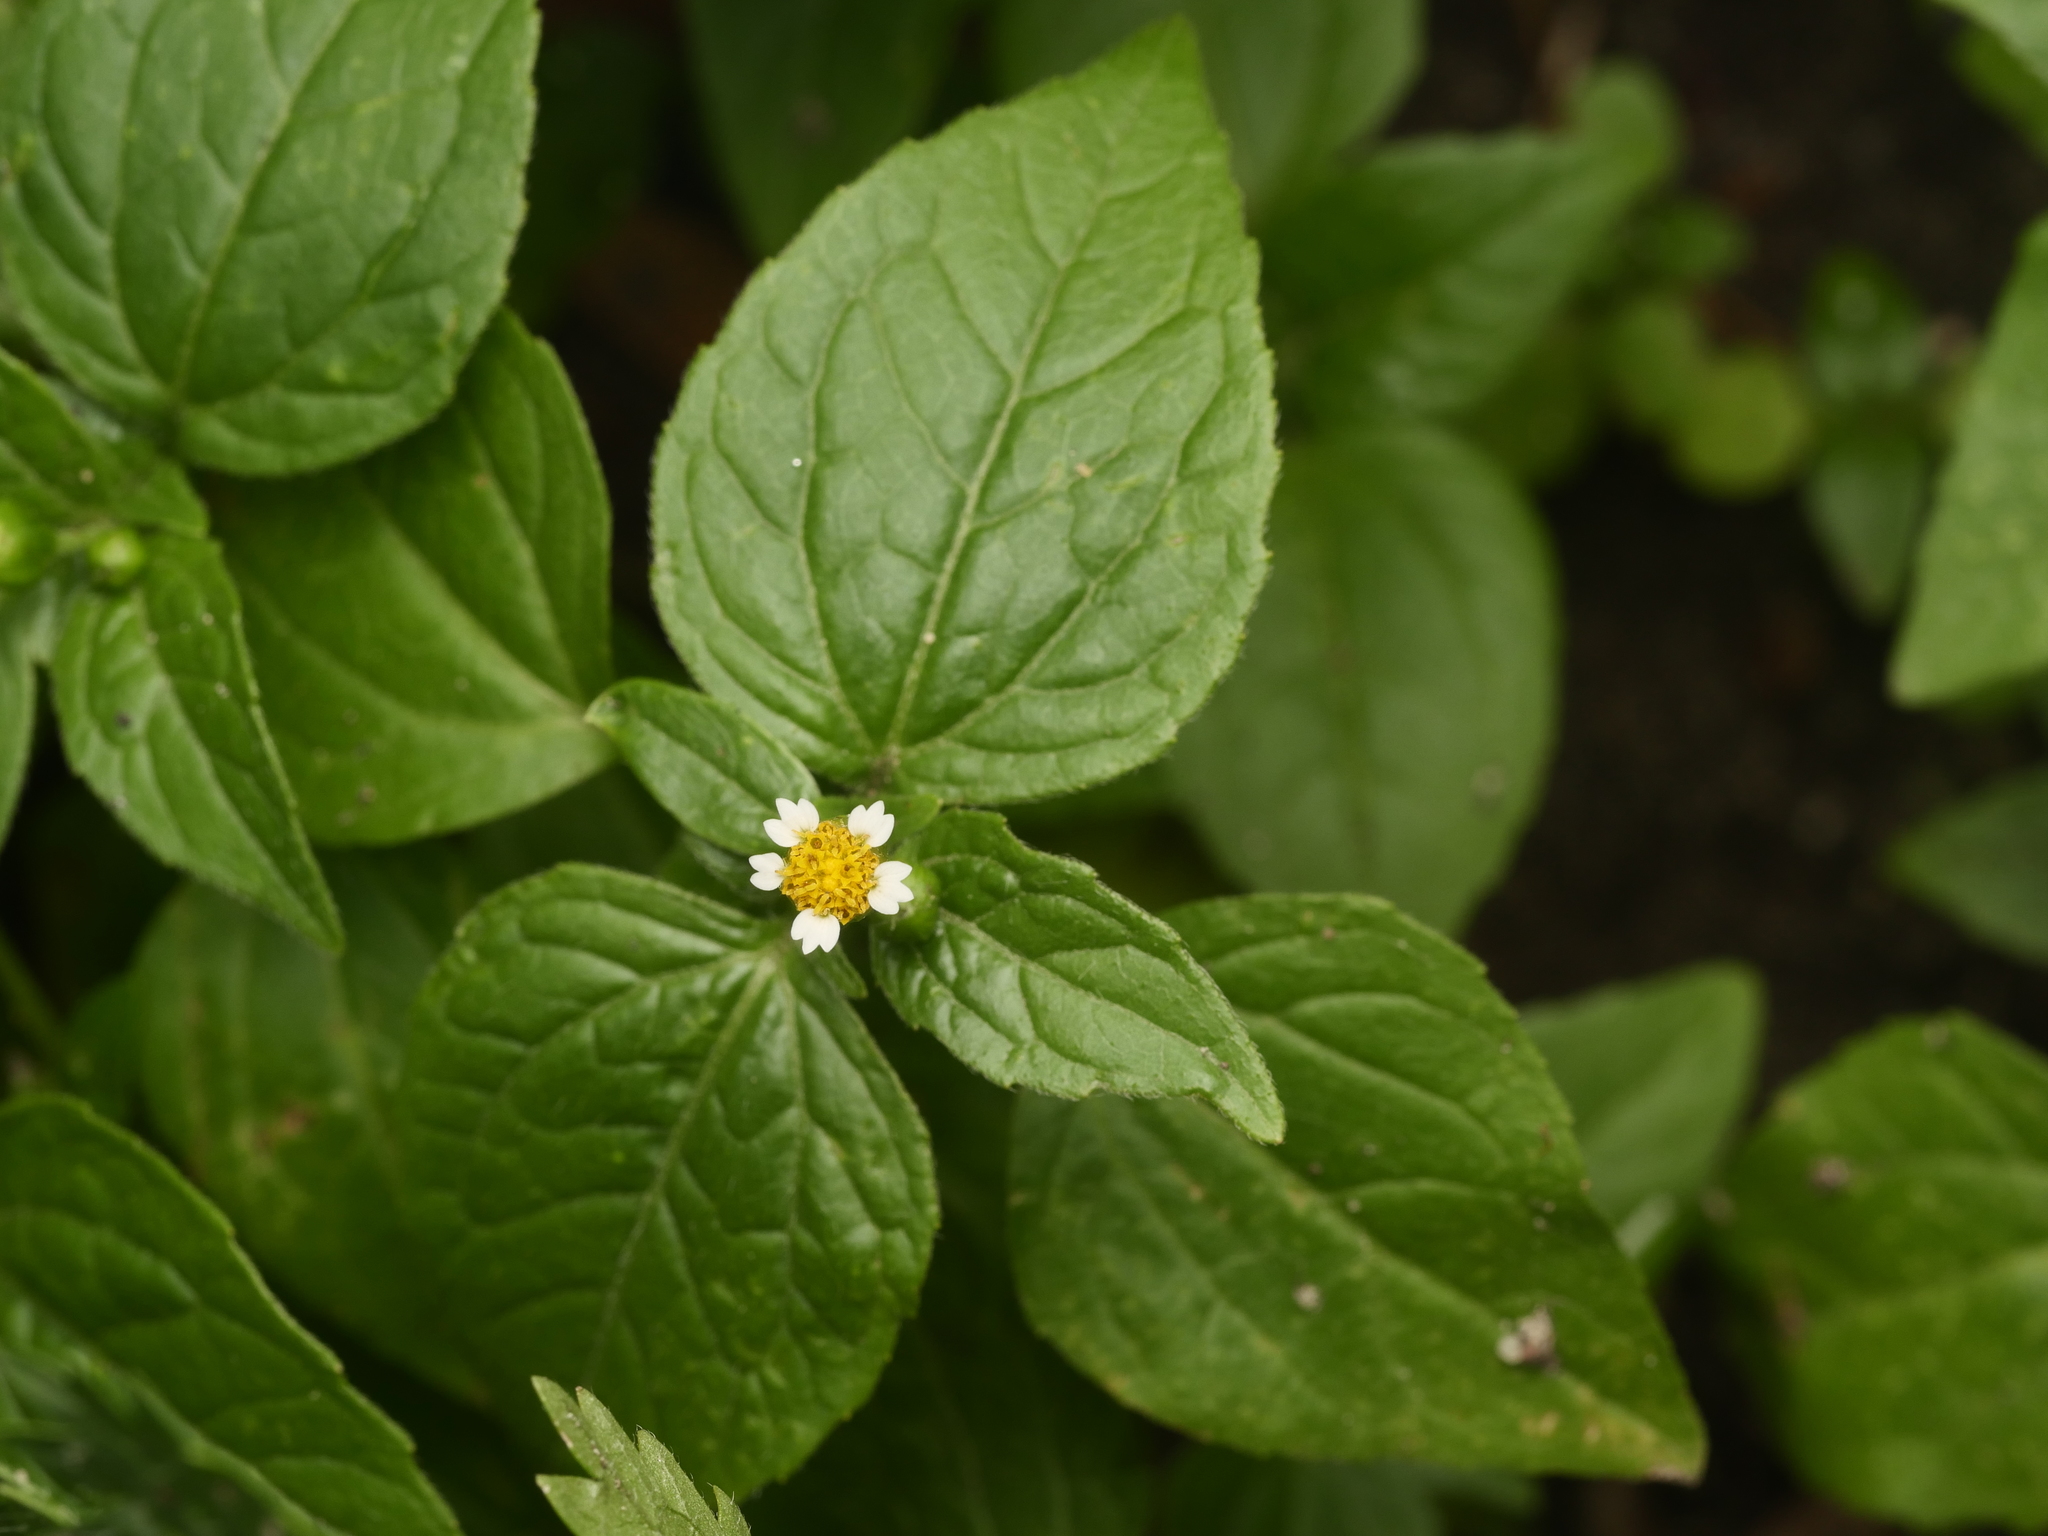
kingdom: Plantae
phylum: Tracheophyta
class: Magnoliopsida
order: Asterales
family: Asteraceae
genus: Galinsoga
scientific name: Galinsoga parviflora
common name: Gallant soldier
